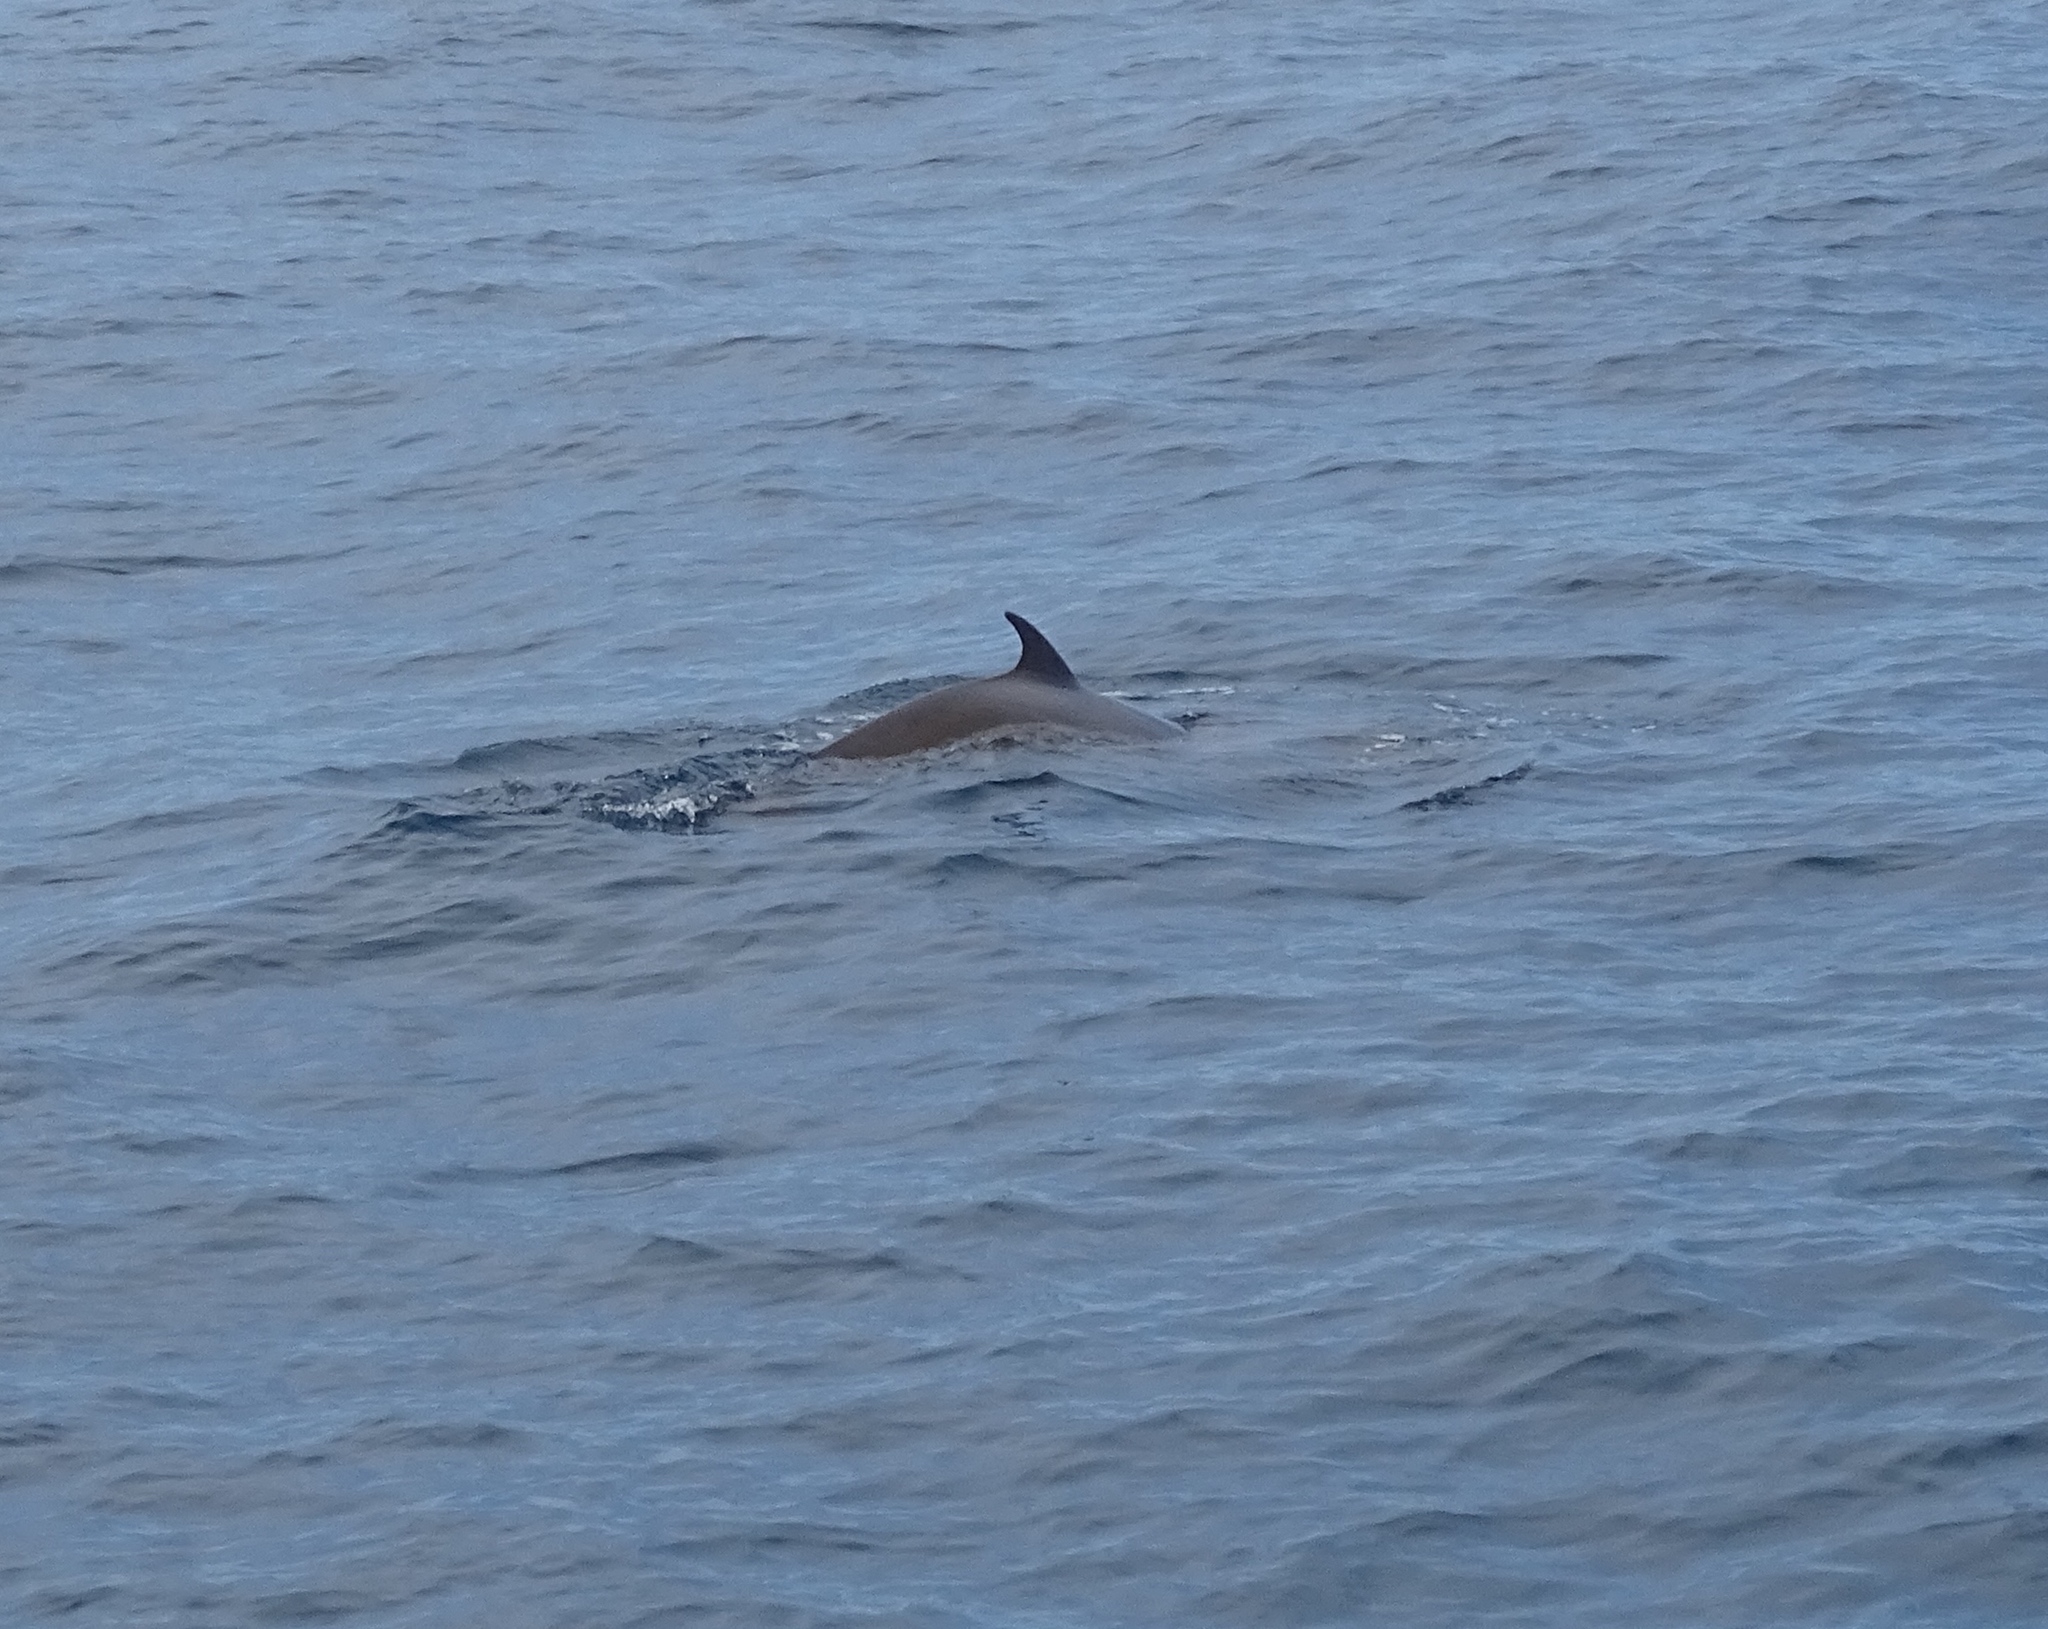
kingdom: Animalia
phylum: Chordata
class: Mammalia
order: Cetacea
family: Hyperoodontidae
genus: Ziphius
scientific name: Ziphius cavirostris
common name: Cuvier's beaked whale
